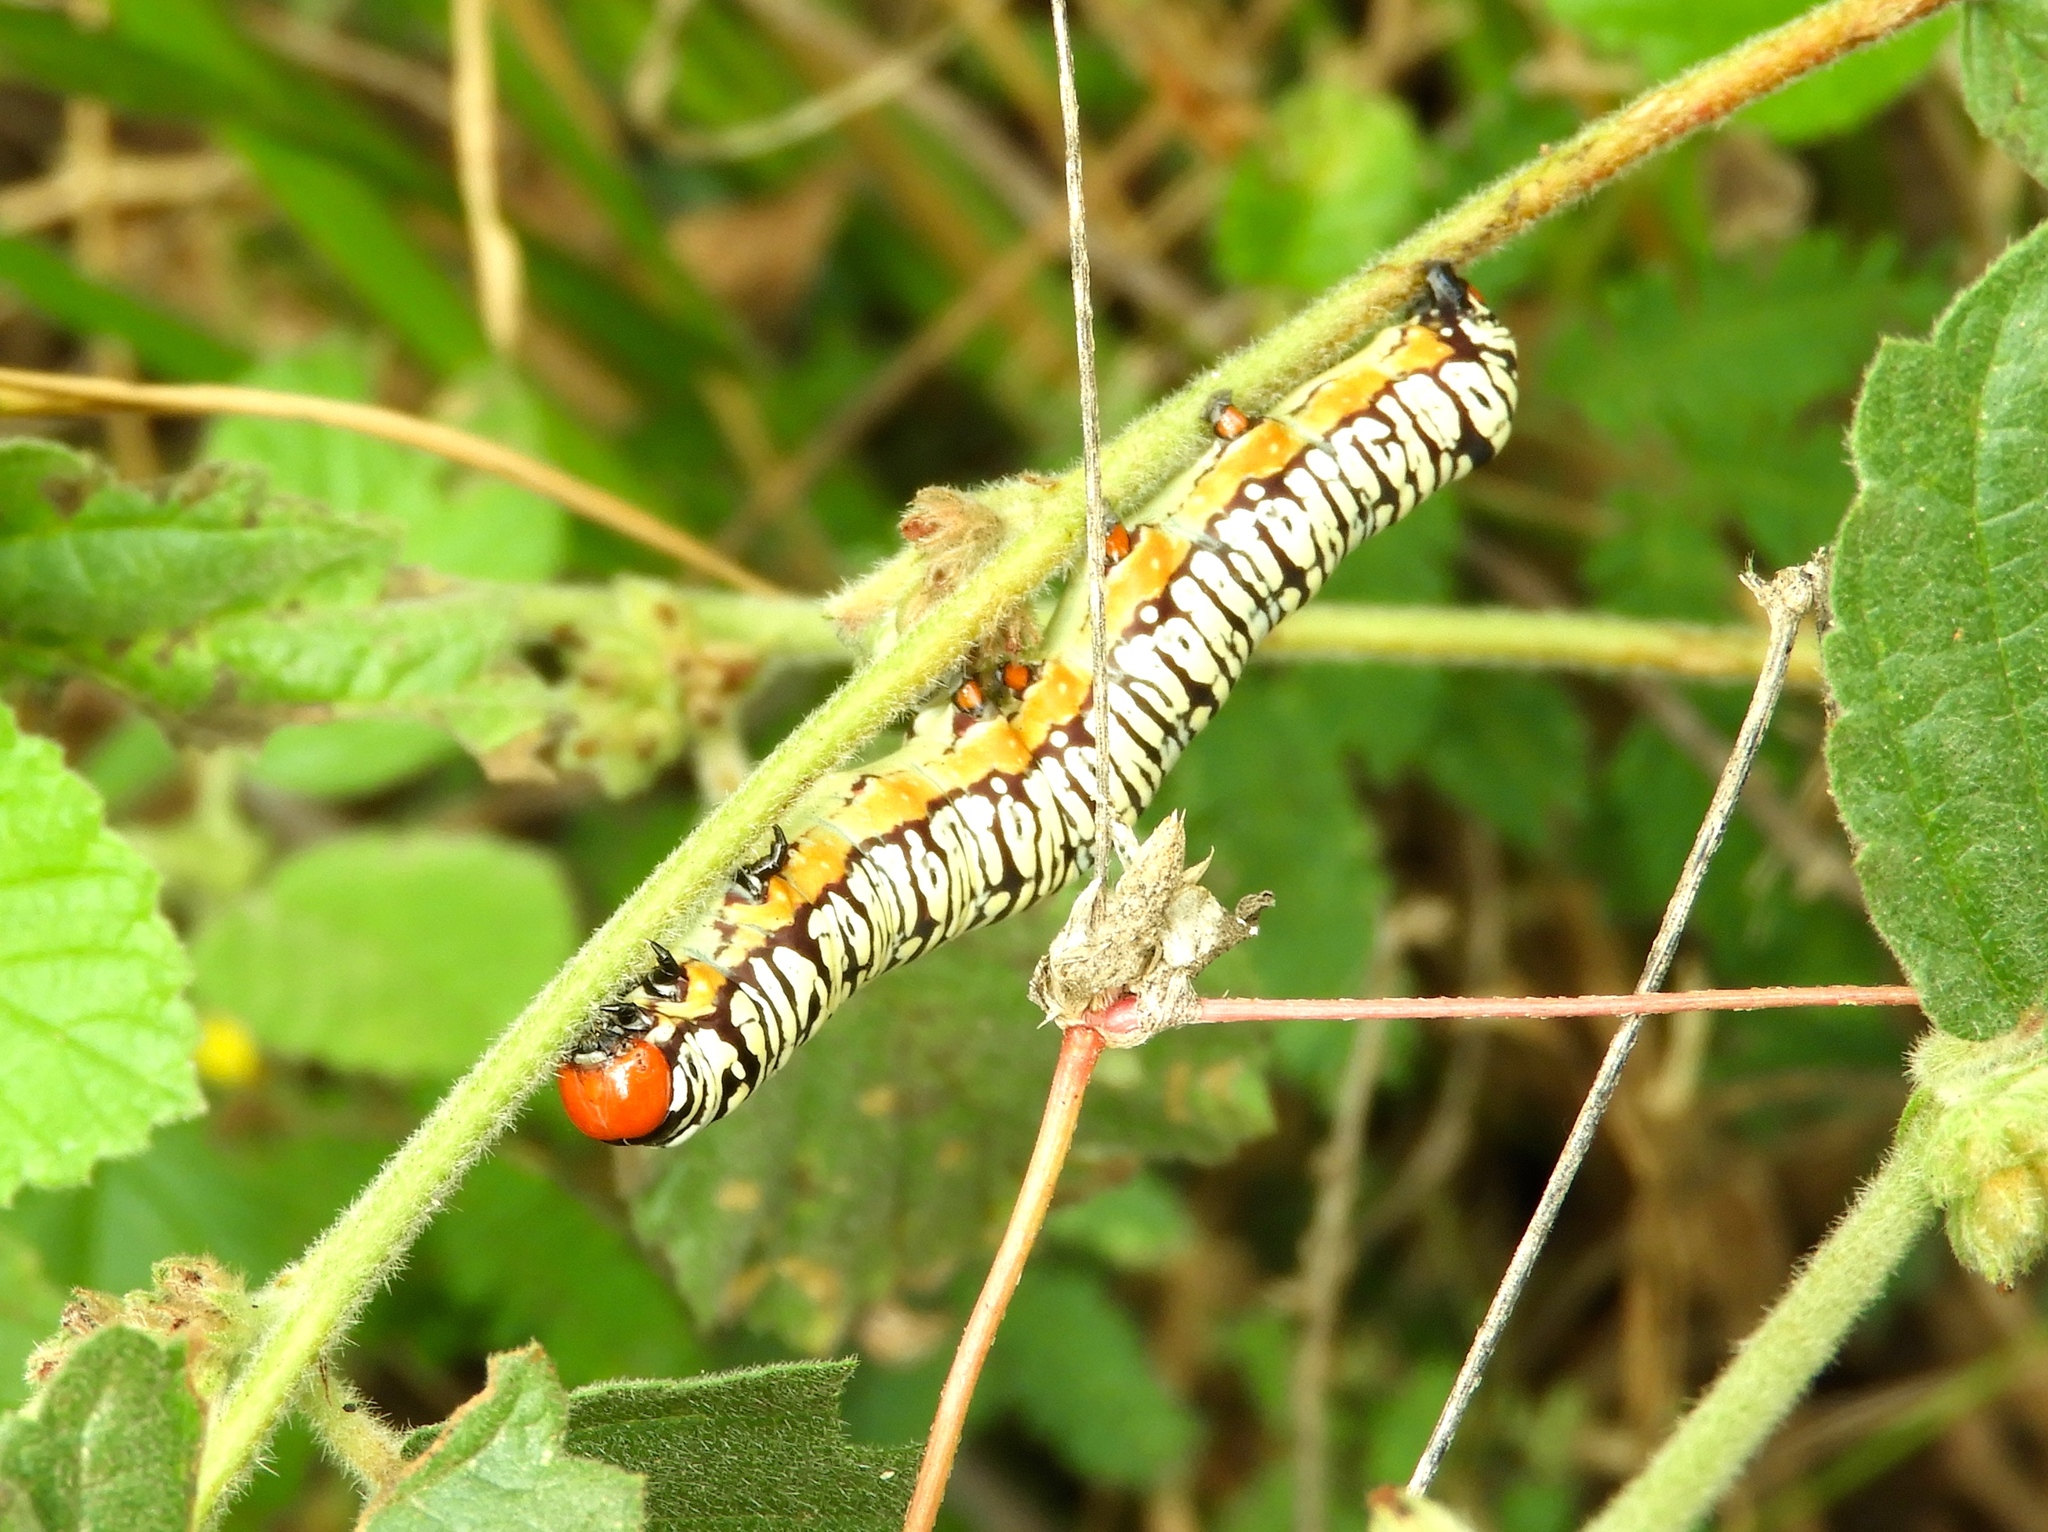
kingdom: Animalia
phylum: Arthropoda
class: Insecta
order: Lepidoptera
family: Erebidae
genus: Diphthera
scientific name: Diphthera festiva
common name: Hieroglyphic moth
